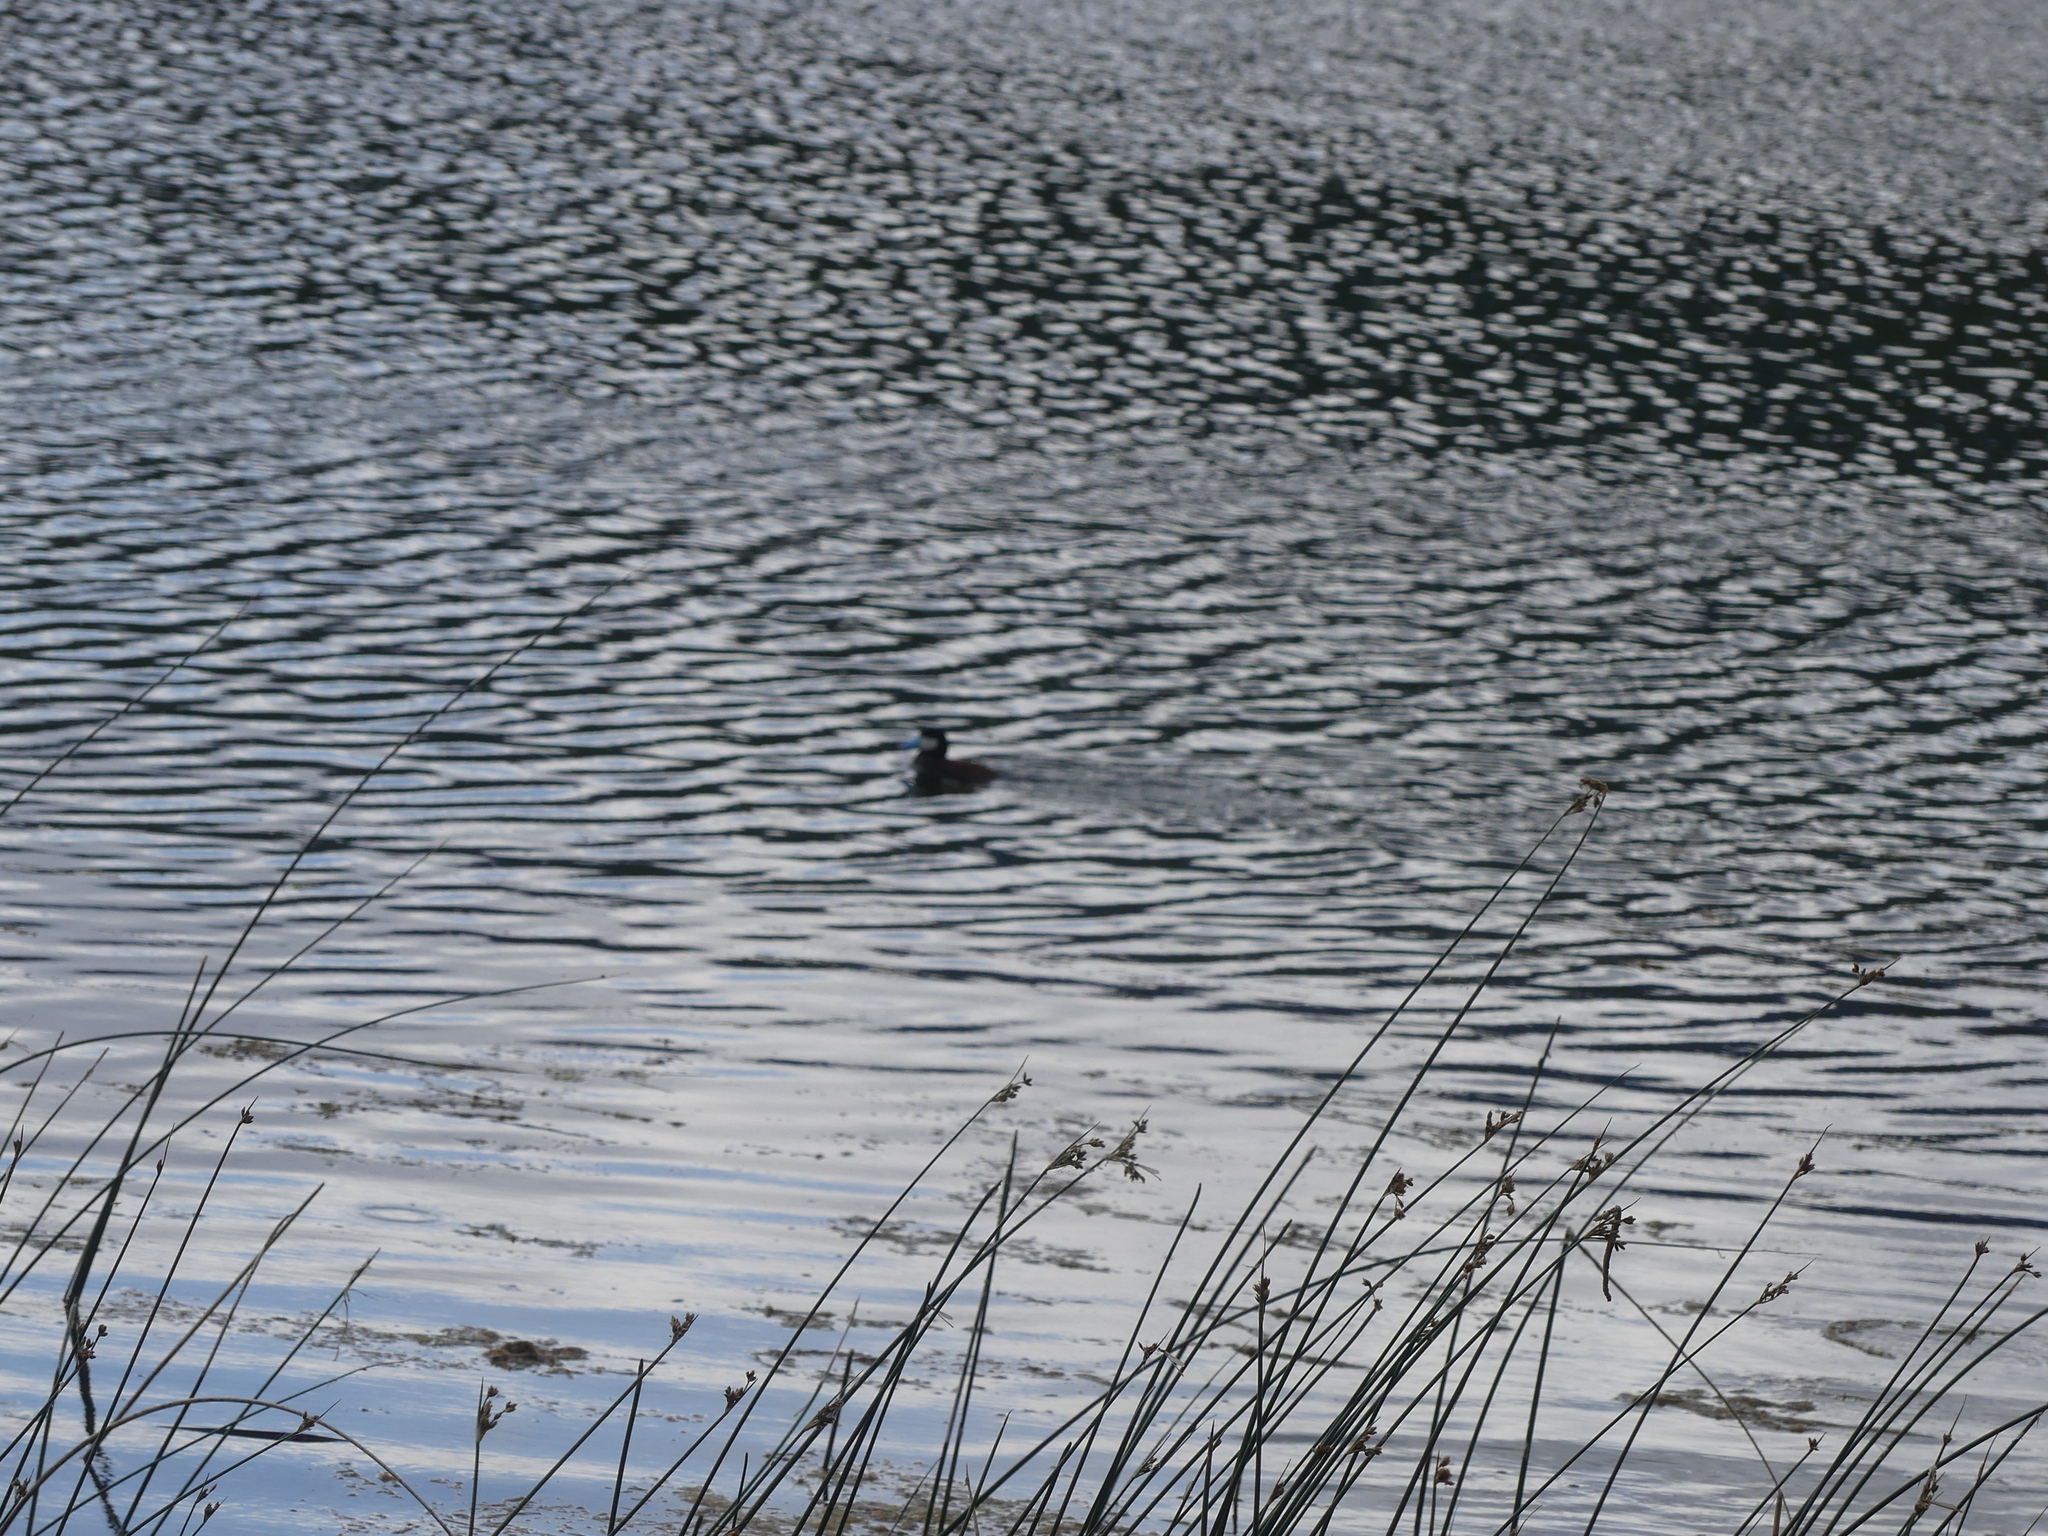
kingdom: Animalia
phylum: Chordata
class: Aves
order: Anseriformes
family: Anatidae
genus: Oxyura
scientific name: Oxyura jamaicensis
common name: Ruddy duck
